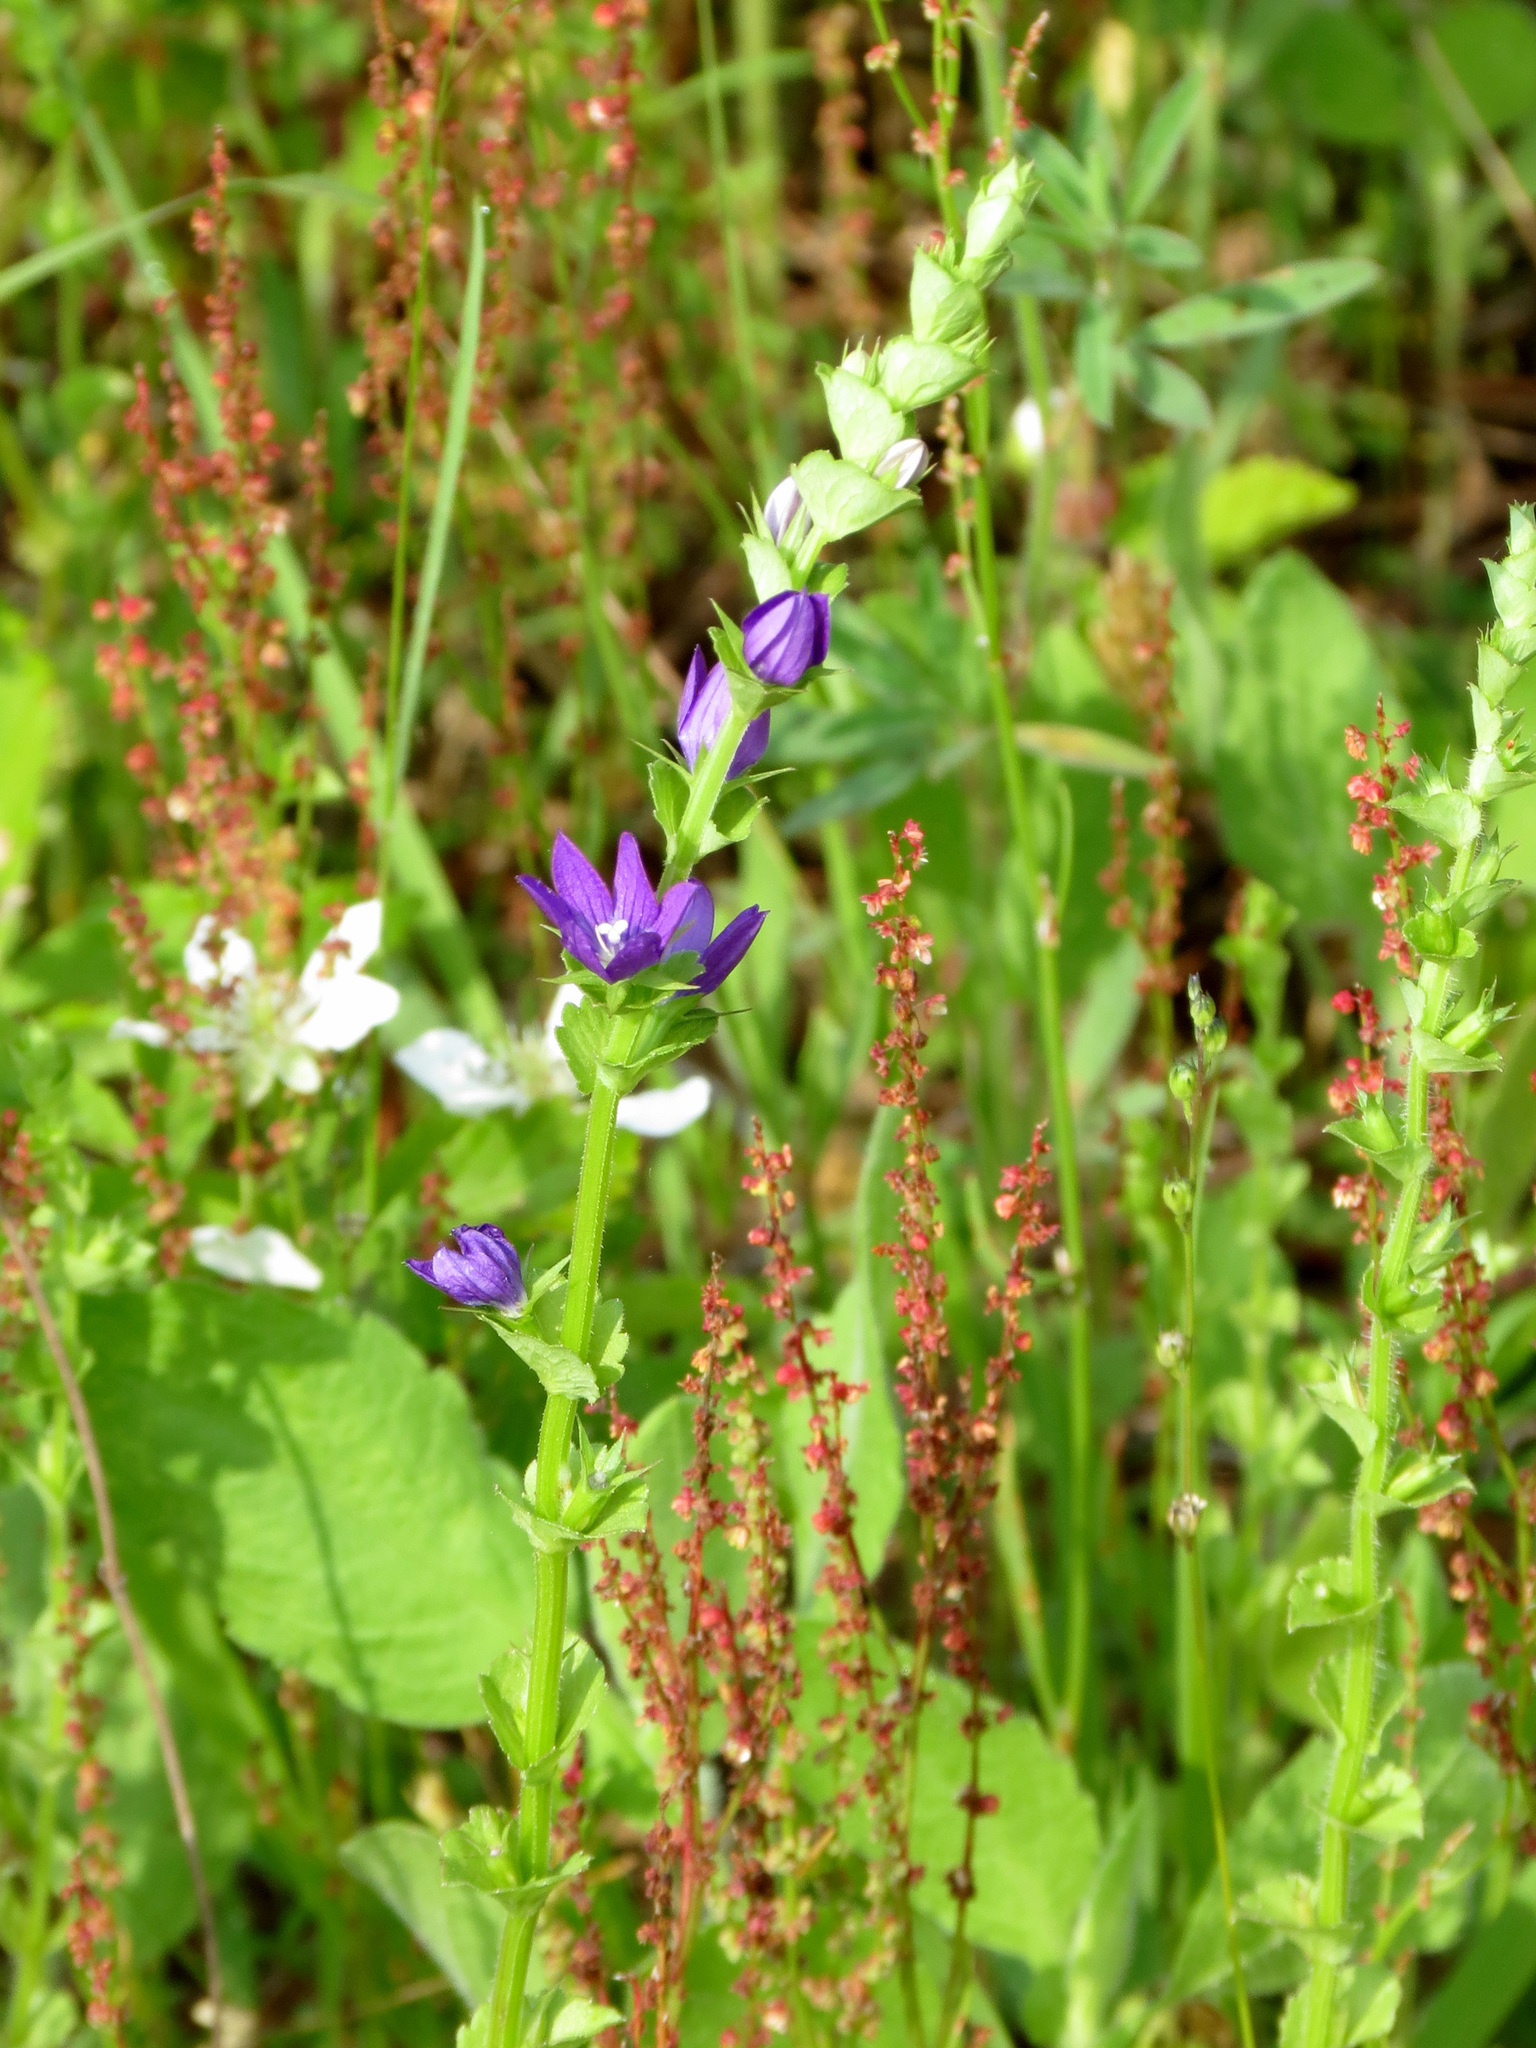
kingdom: Plantae
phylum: Tracheophyta
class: Magnoliopsida
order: Asterales
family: Campanulaceae
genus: Triodanis
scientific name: Triodanis perfoliata
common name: Clasping venus' looking-glass
